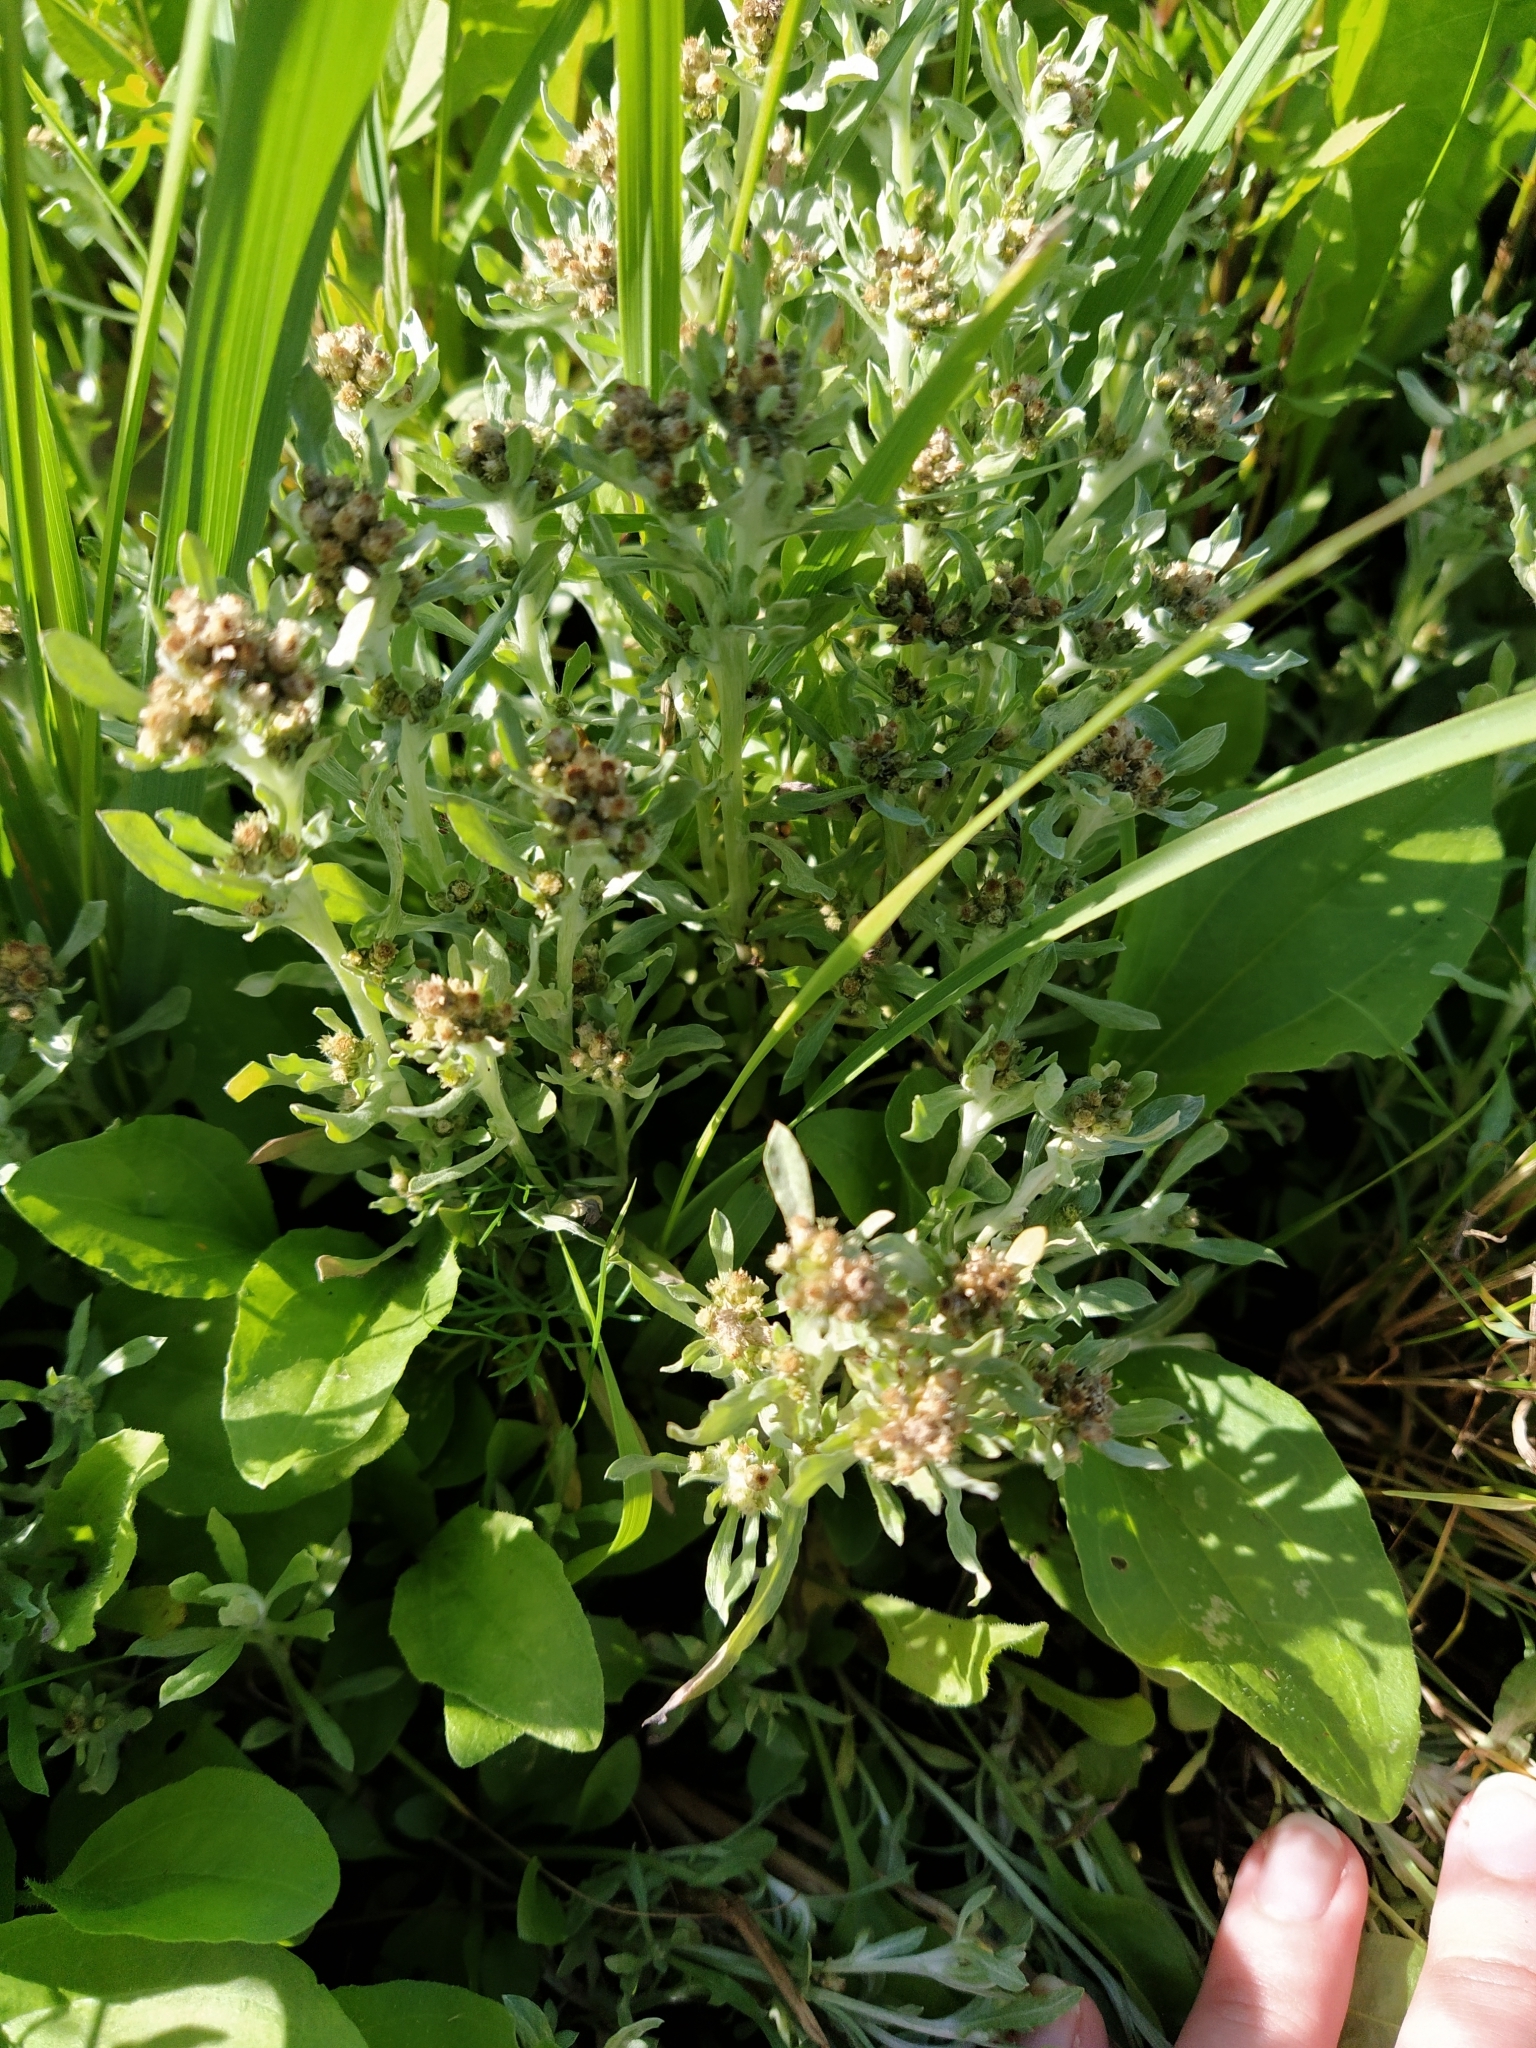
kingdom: Plantae
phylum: Tracheophyta
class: Magnoliopsida
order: Asterales
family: Asteraceae
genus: Gnaphalium
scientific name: Gnaphalium uliginosum
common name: Marsh cudweed
